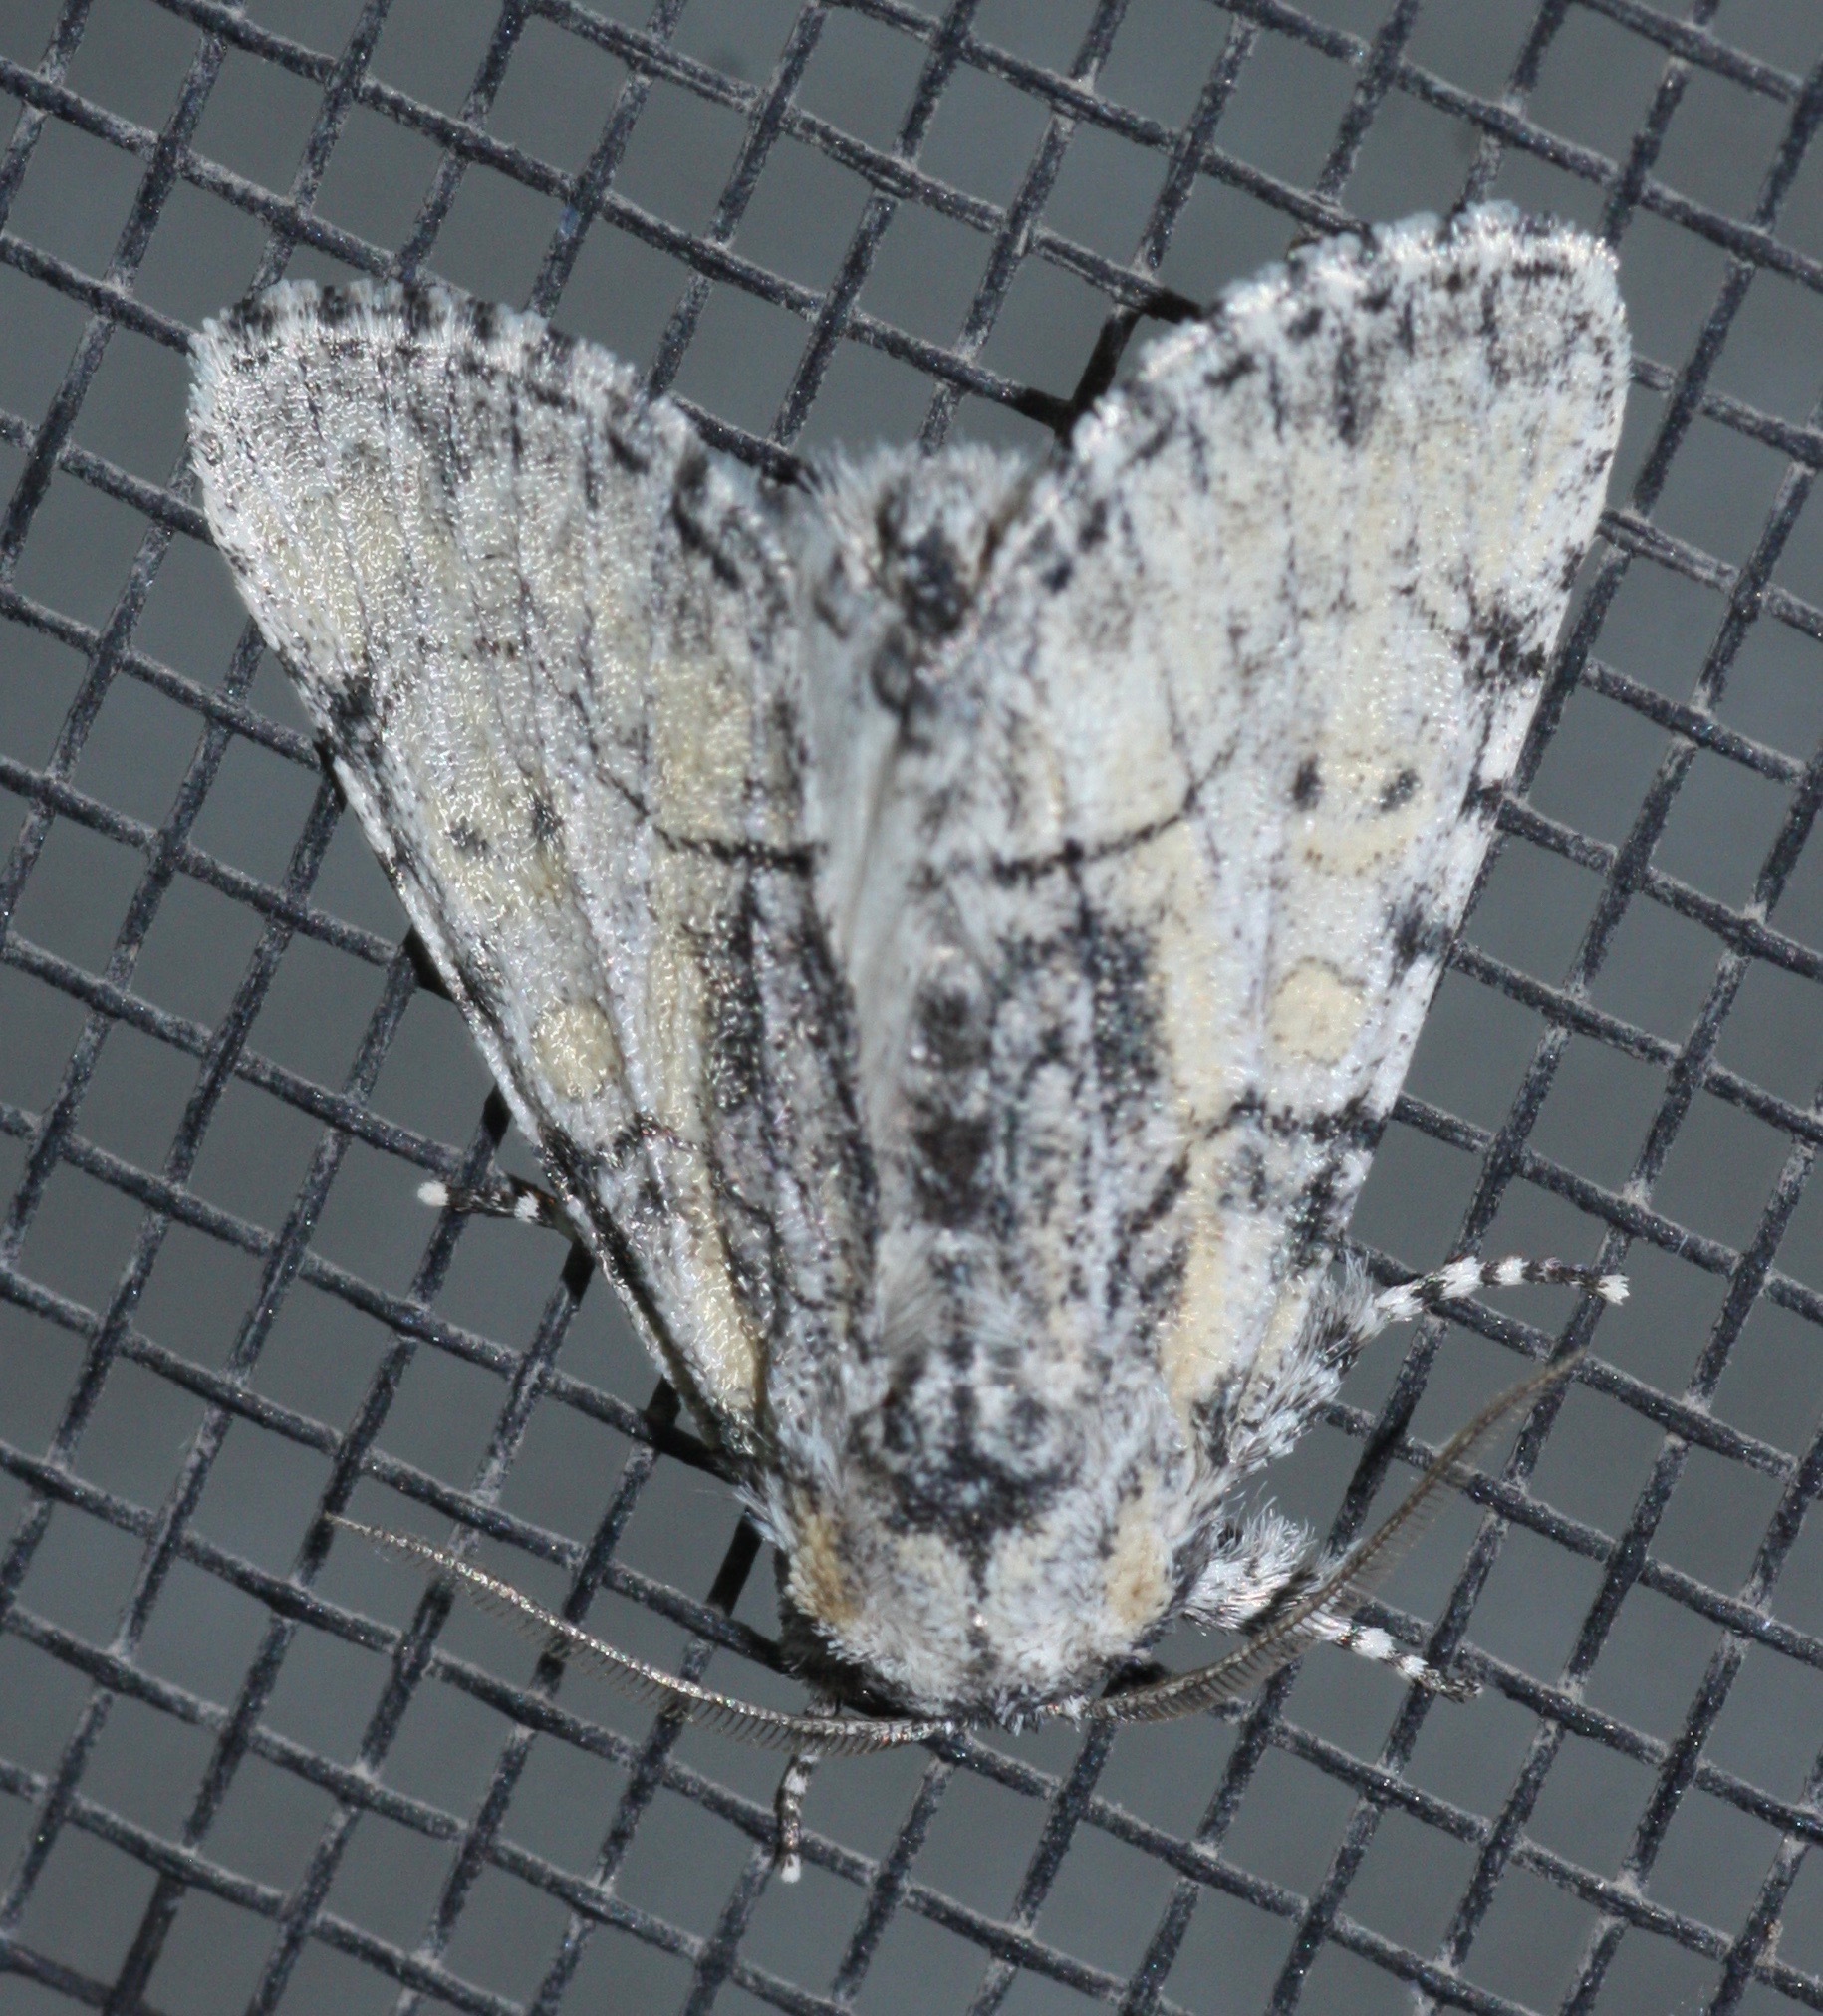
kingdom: Animalia
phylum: Arthropoda
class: Insecta
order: Lepidoptera
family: Noctuidae
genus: Raphia
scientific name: Raphia frater
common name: Brother
